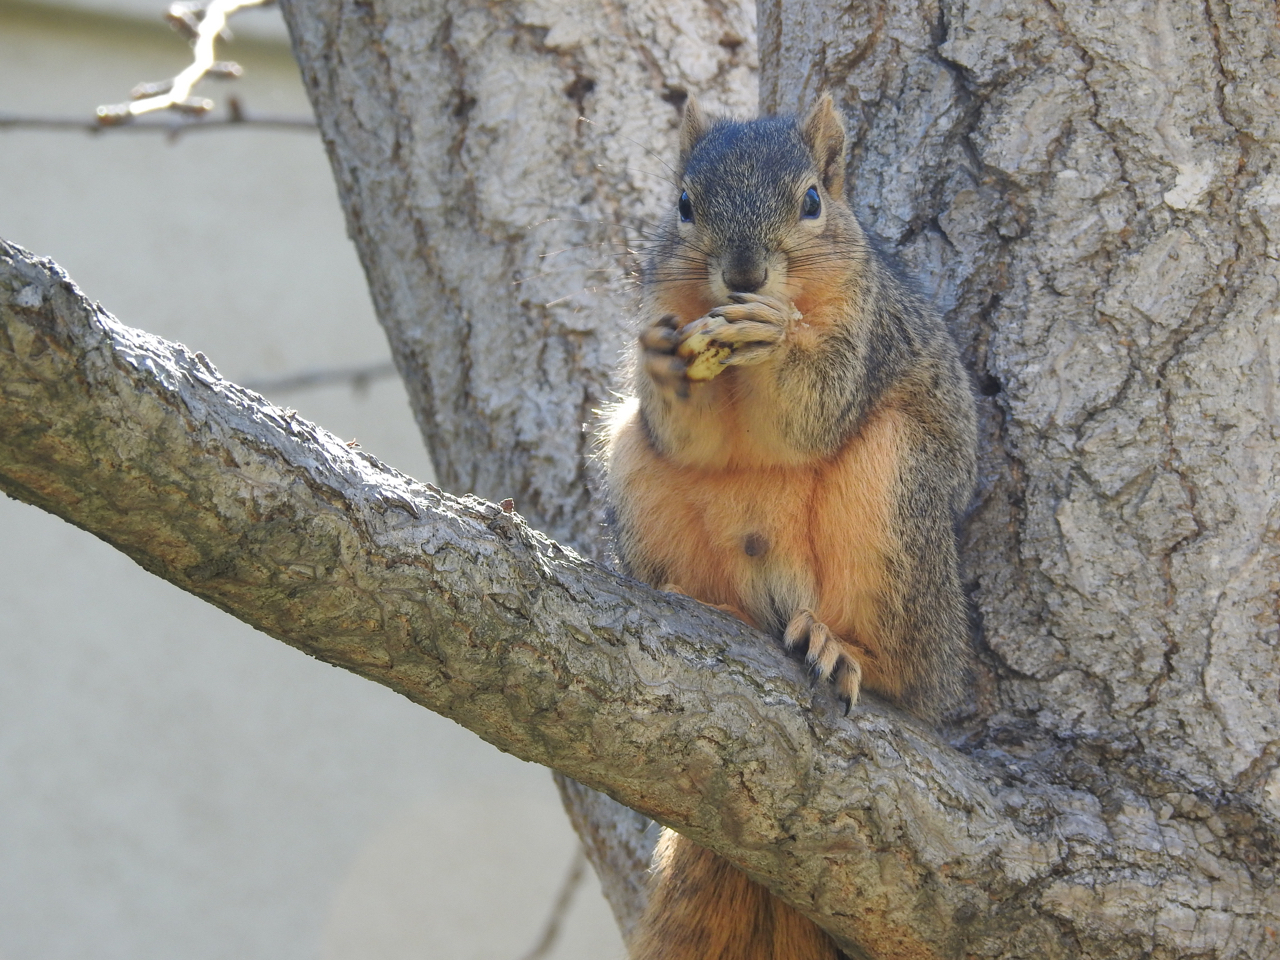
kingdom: Animalia
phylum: Chordata
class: Mammalia
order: Rodentia
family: Sciuridae
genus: Sciurus
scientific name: Sciurus niger
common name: Fox squirrel
